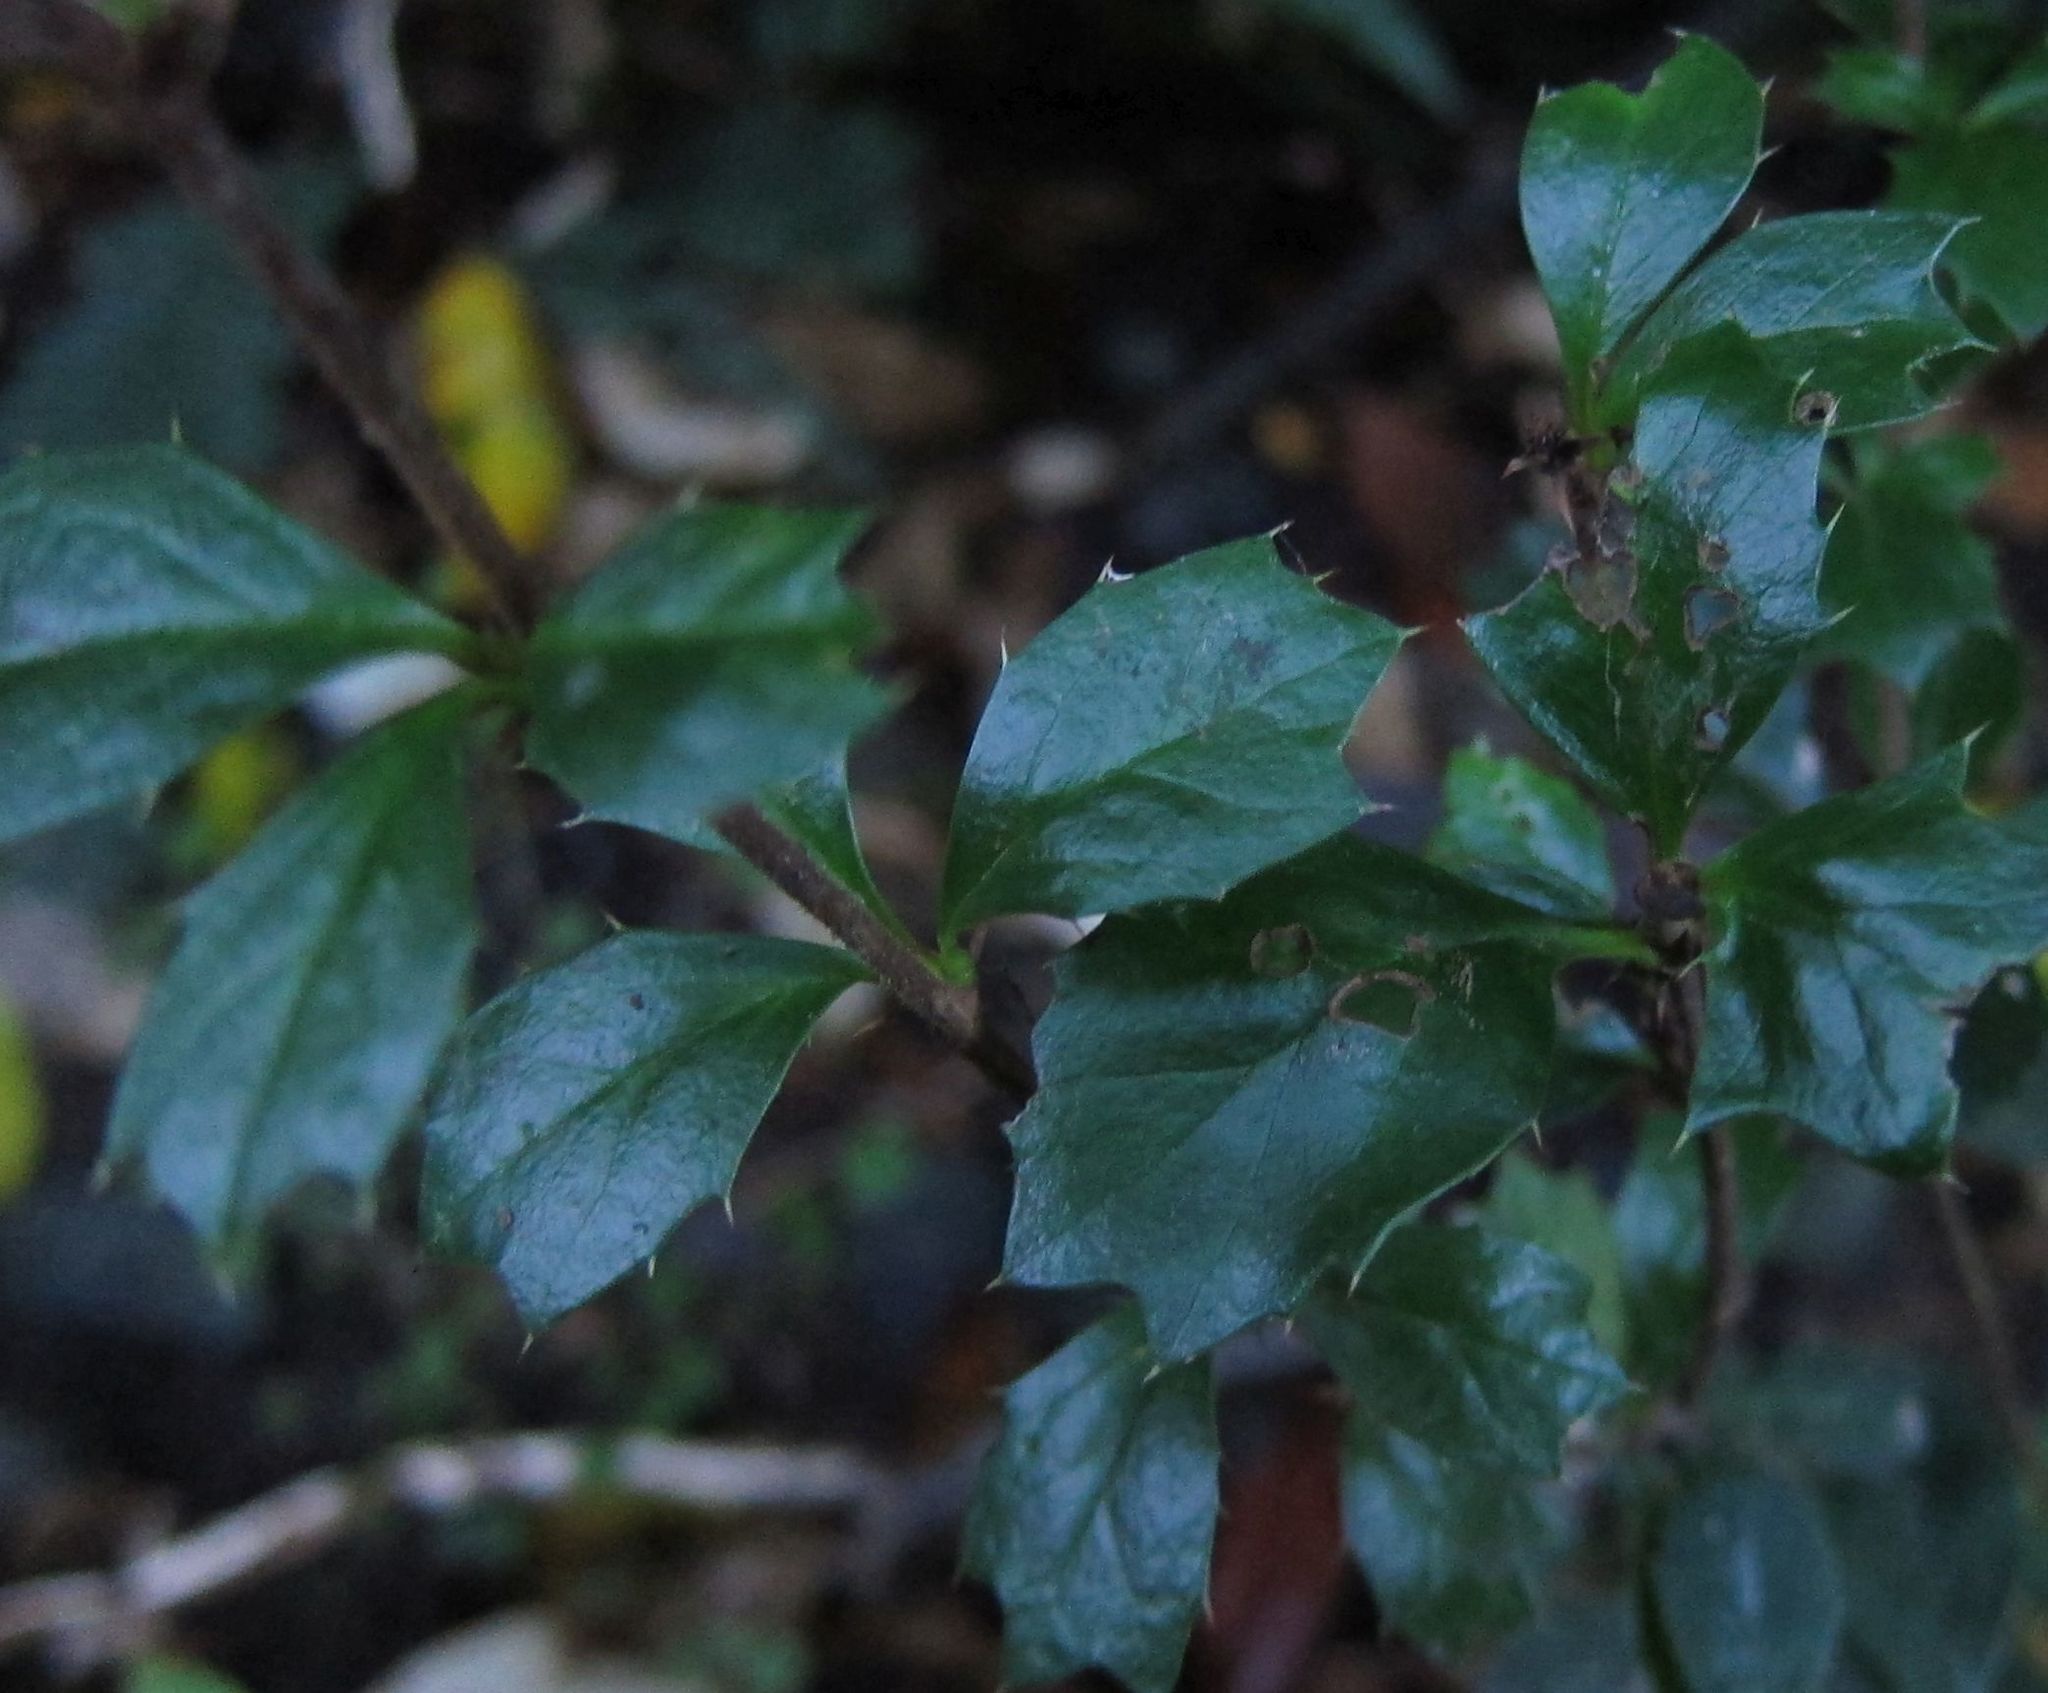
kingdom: Plantae
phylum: Tracheophyta
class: Magnoliopsida
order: Ranunculales
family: Berberidaceae
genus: Berberis
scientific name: Berberis darwinii
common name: Darwin's barberry
